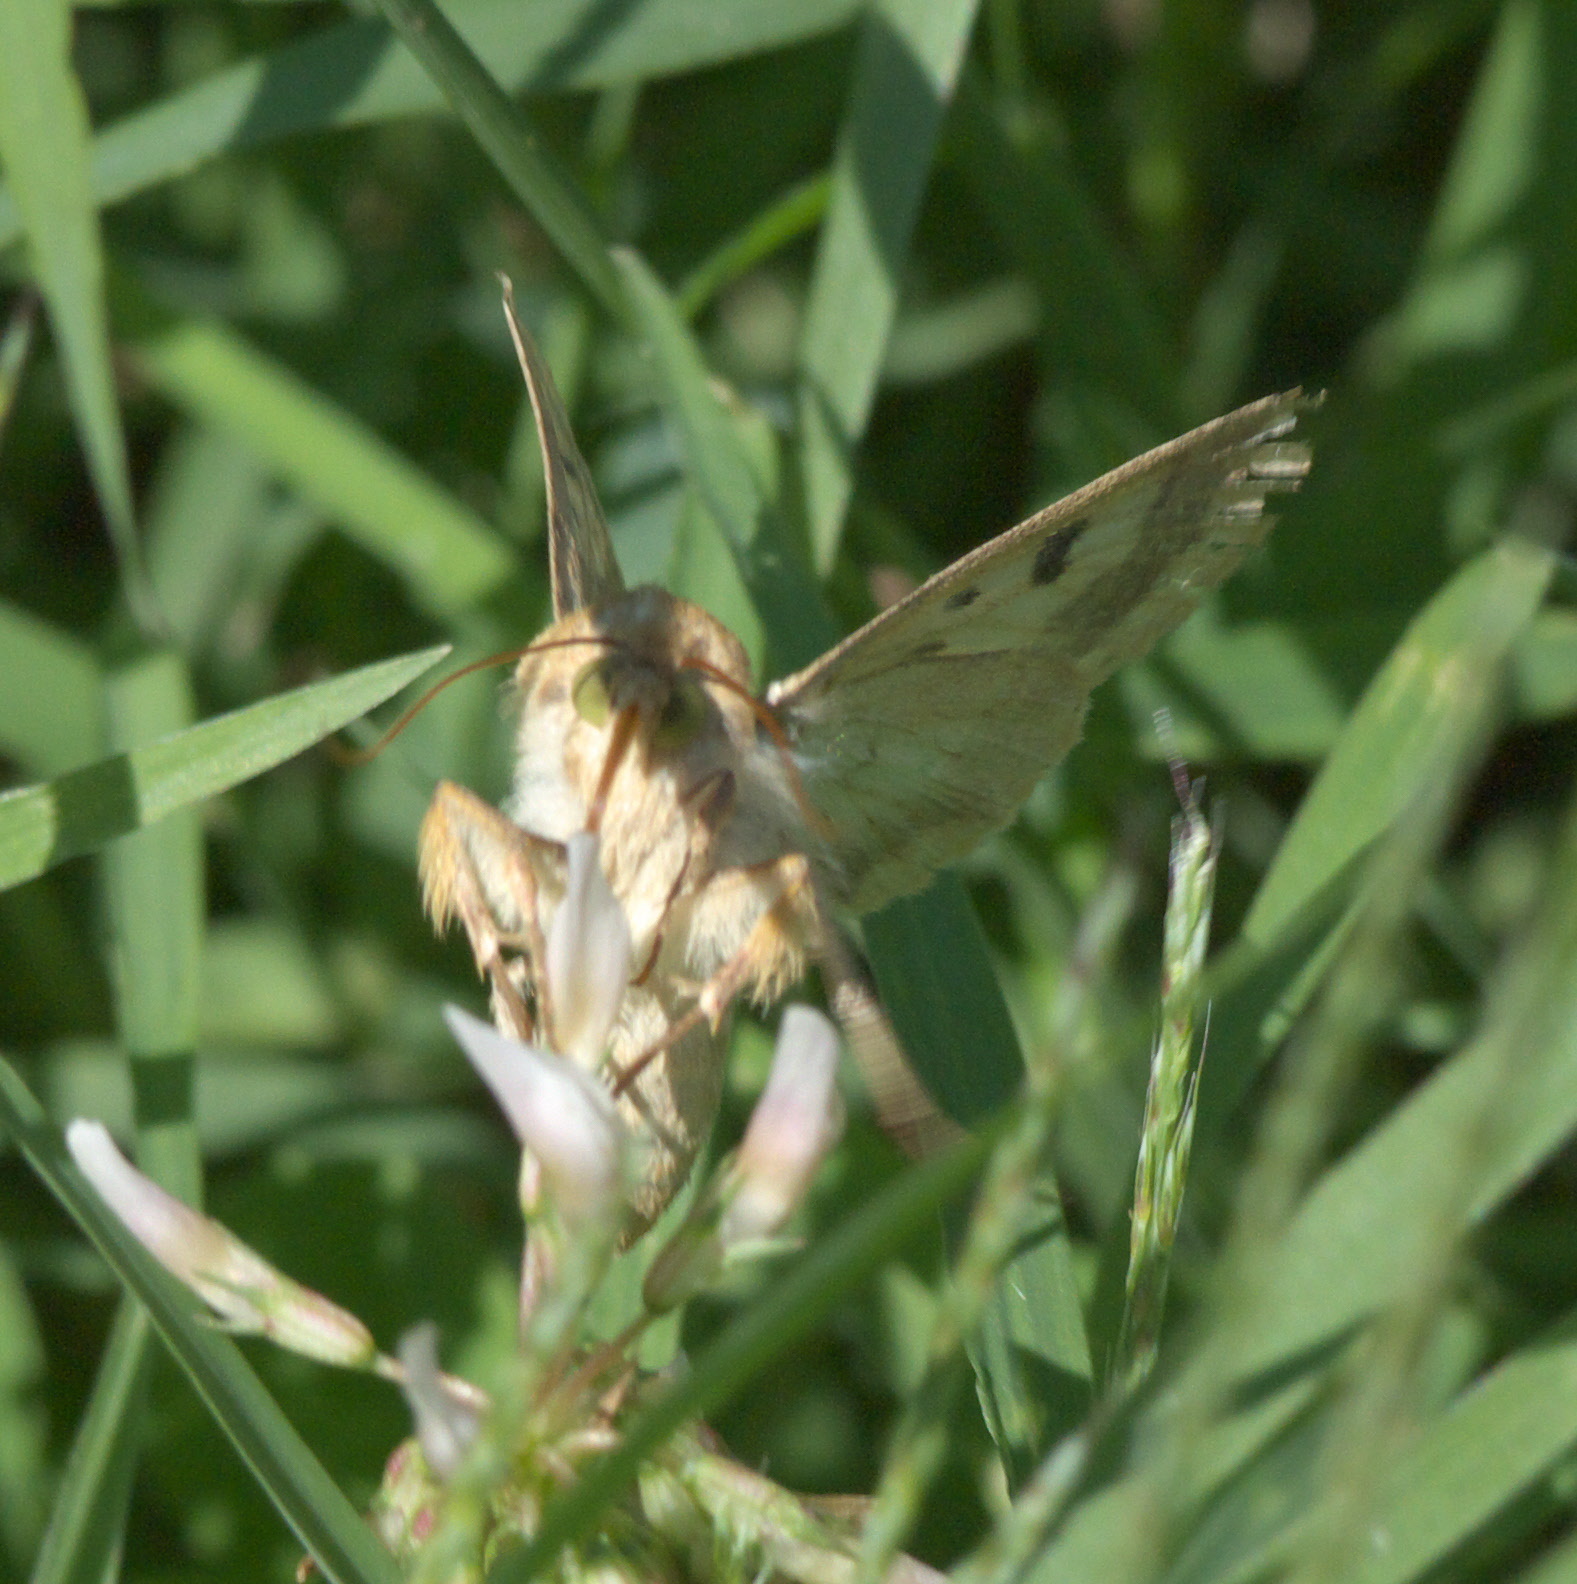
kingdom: Animalia
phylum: Arthropoda
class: Insecta
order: Lepidoptera
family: Noctuidae
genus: Helicoverpa
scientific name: Helicoverpa zea
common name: Bollworm
